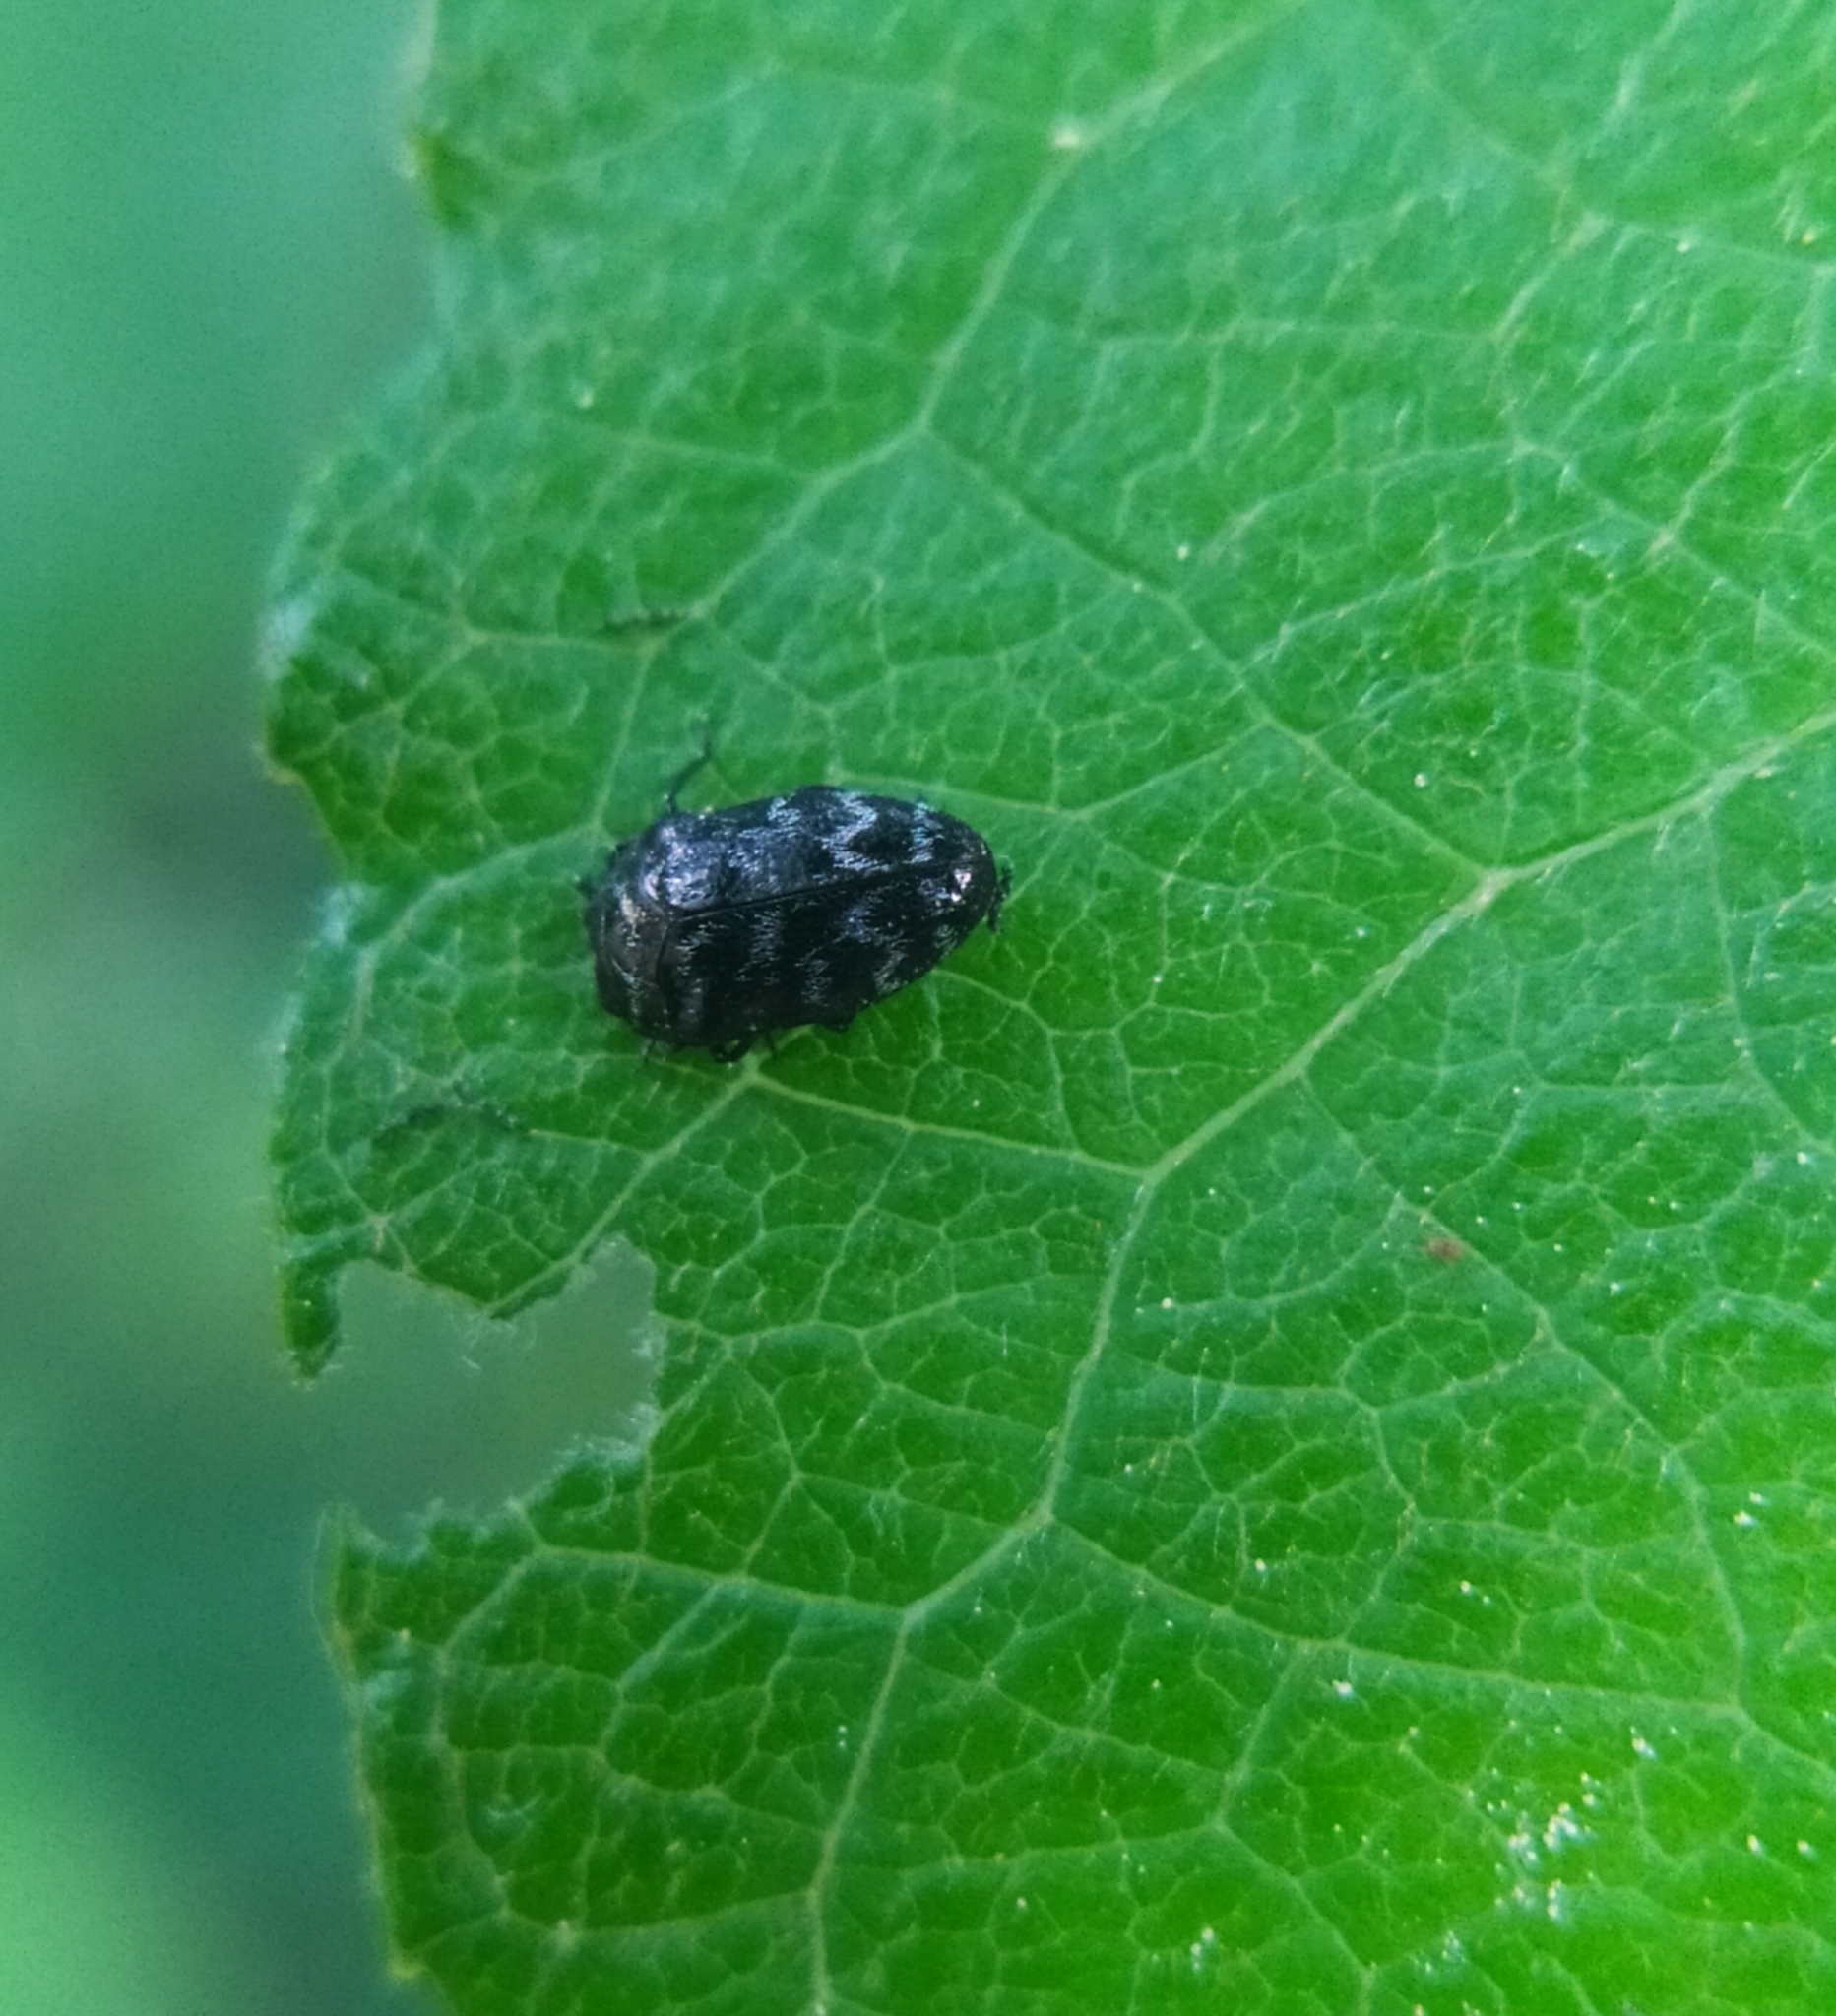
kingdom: Animalia
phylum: Arthropoda
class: Insecta
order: Coleoptera
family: Buprestidae
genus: Trachys
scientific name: Trachys minutus
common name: Metallic wood-boring beetle
